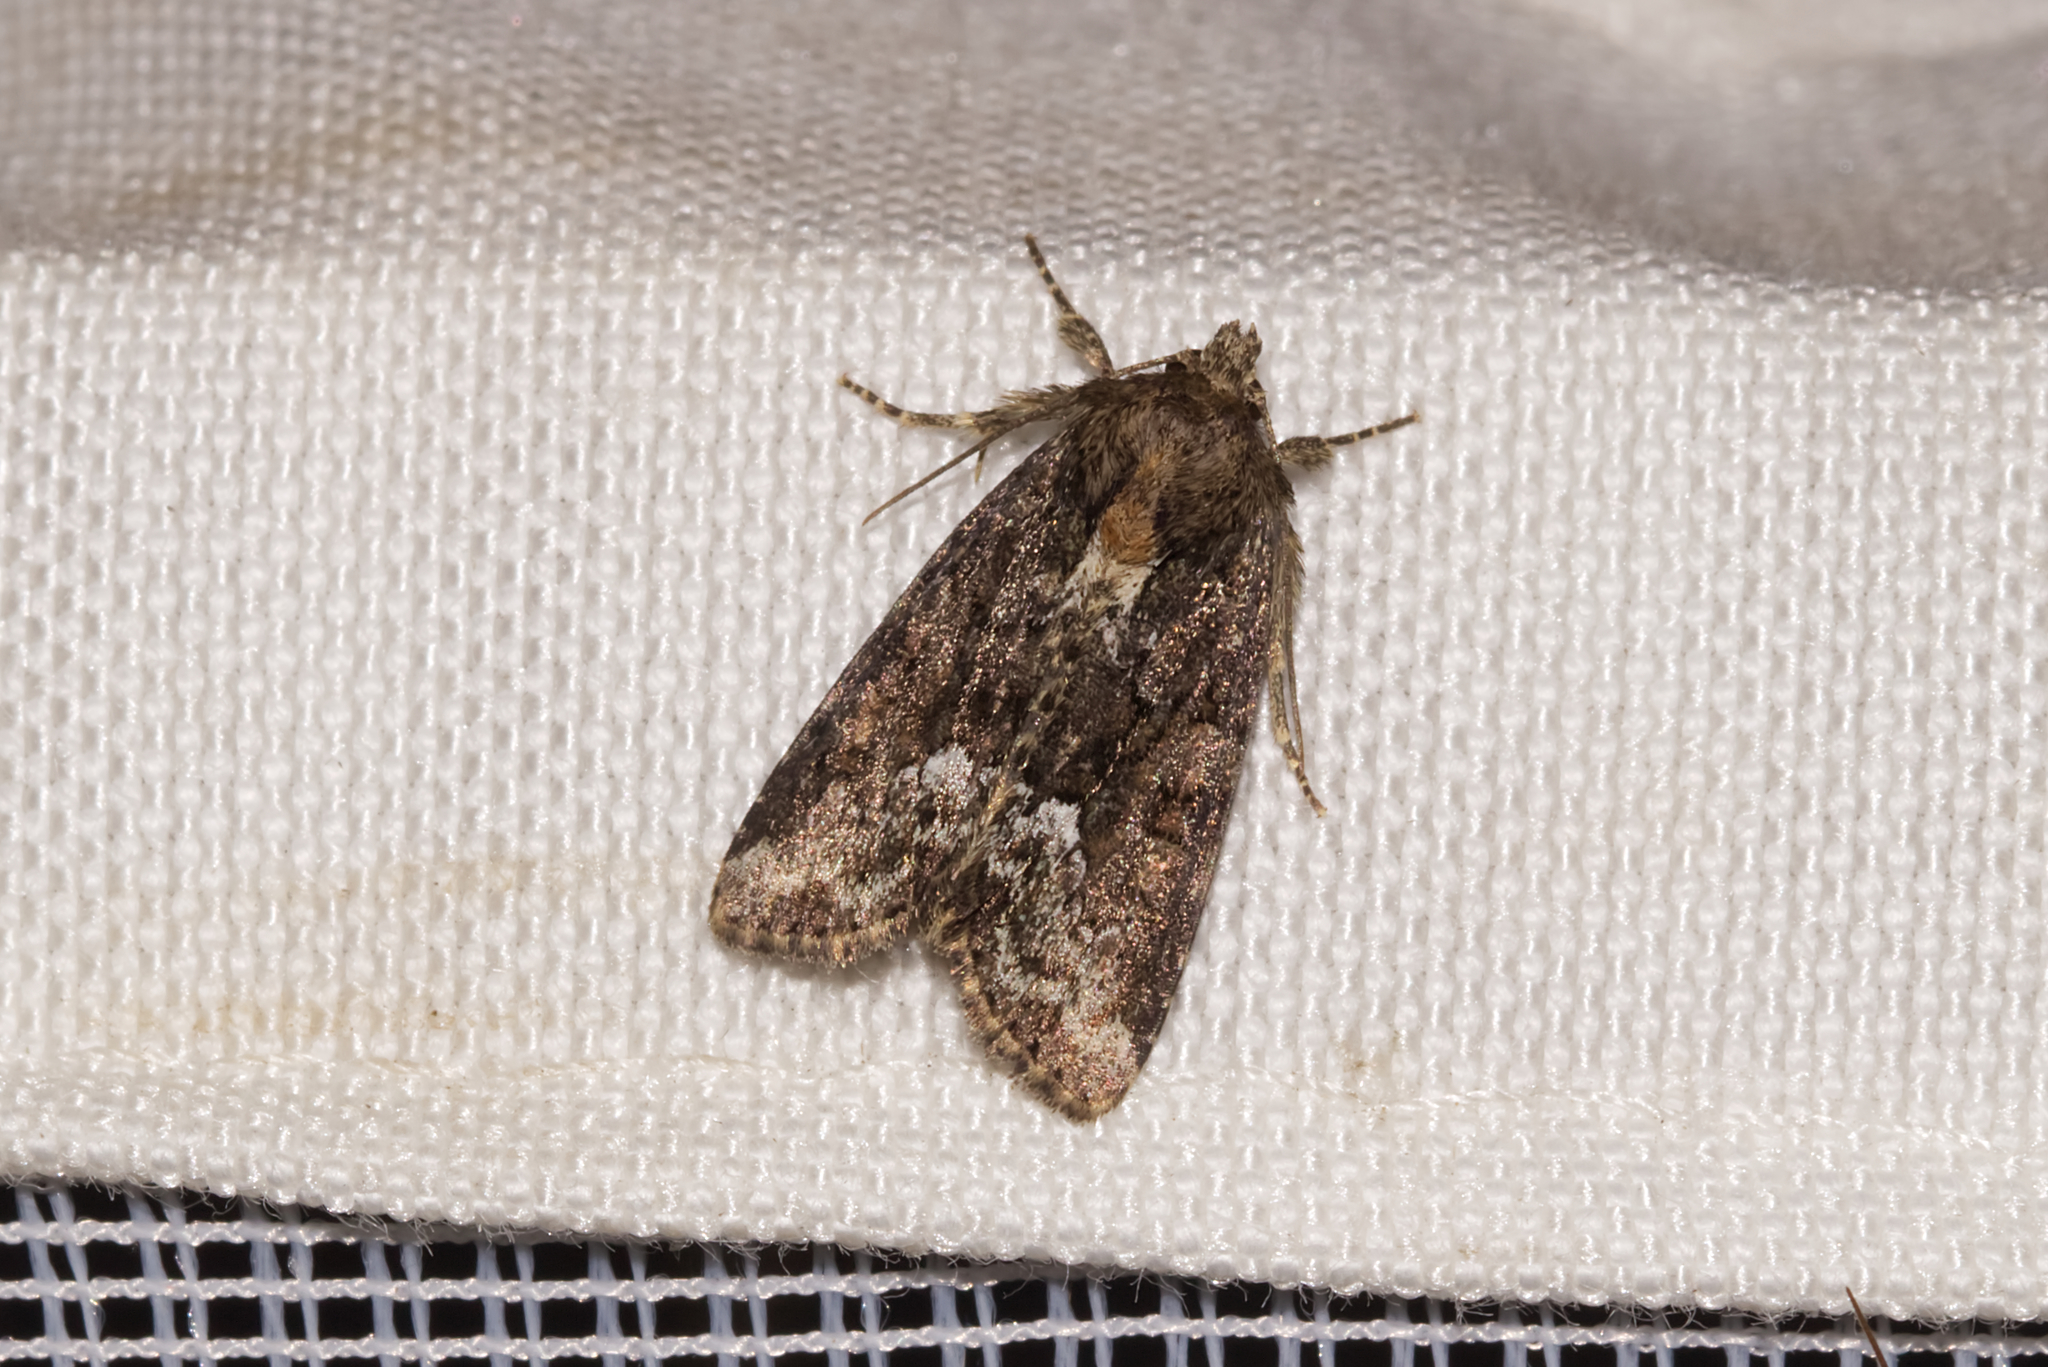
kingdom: Animalia
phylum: Arthropoda
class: Insecta
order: Lepidoptera
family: Noctuidae
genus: Oligia
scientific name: Oligia strigilis
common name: Marbled minor
